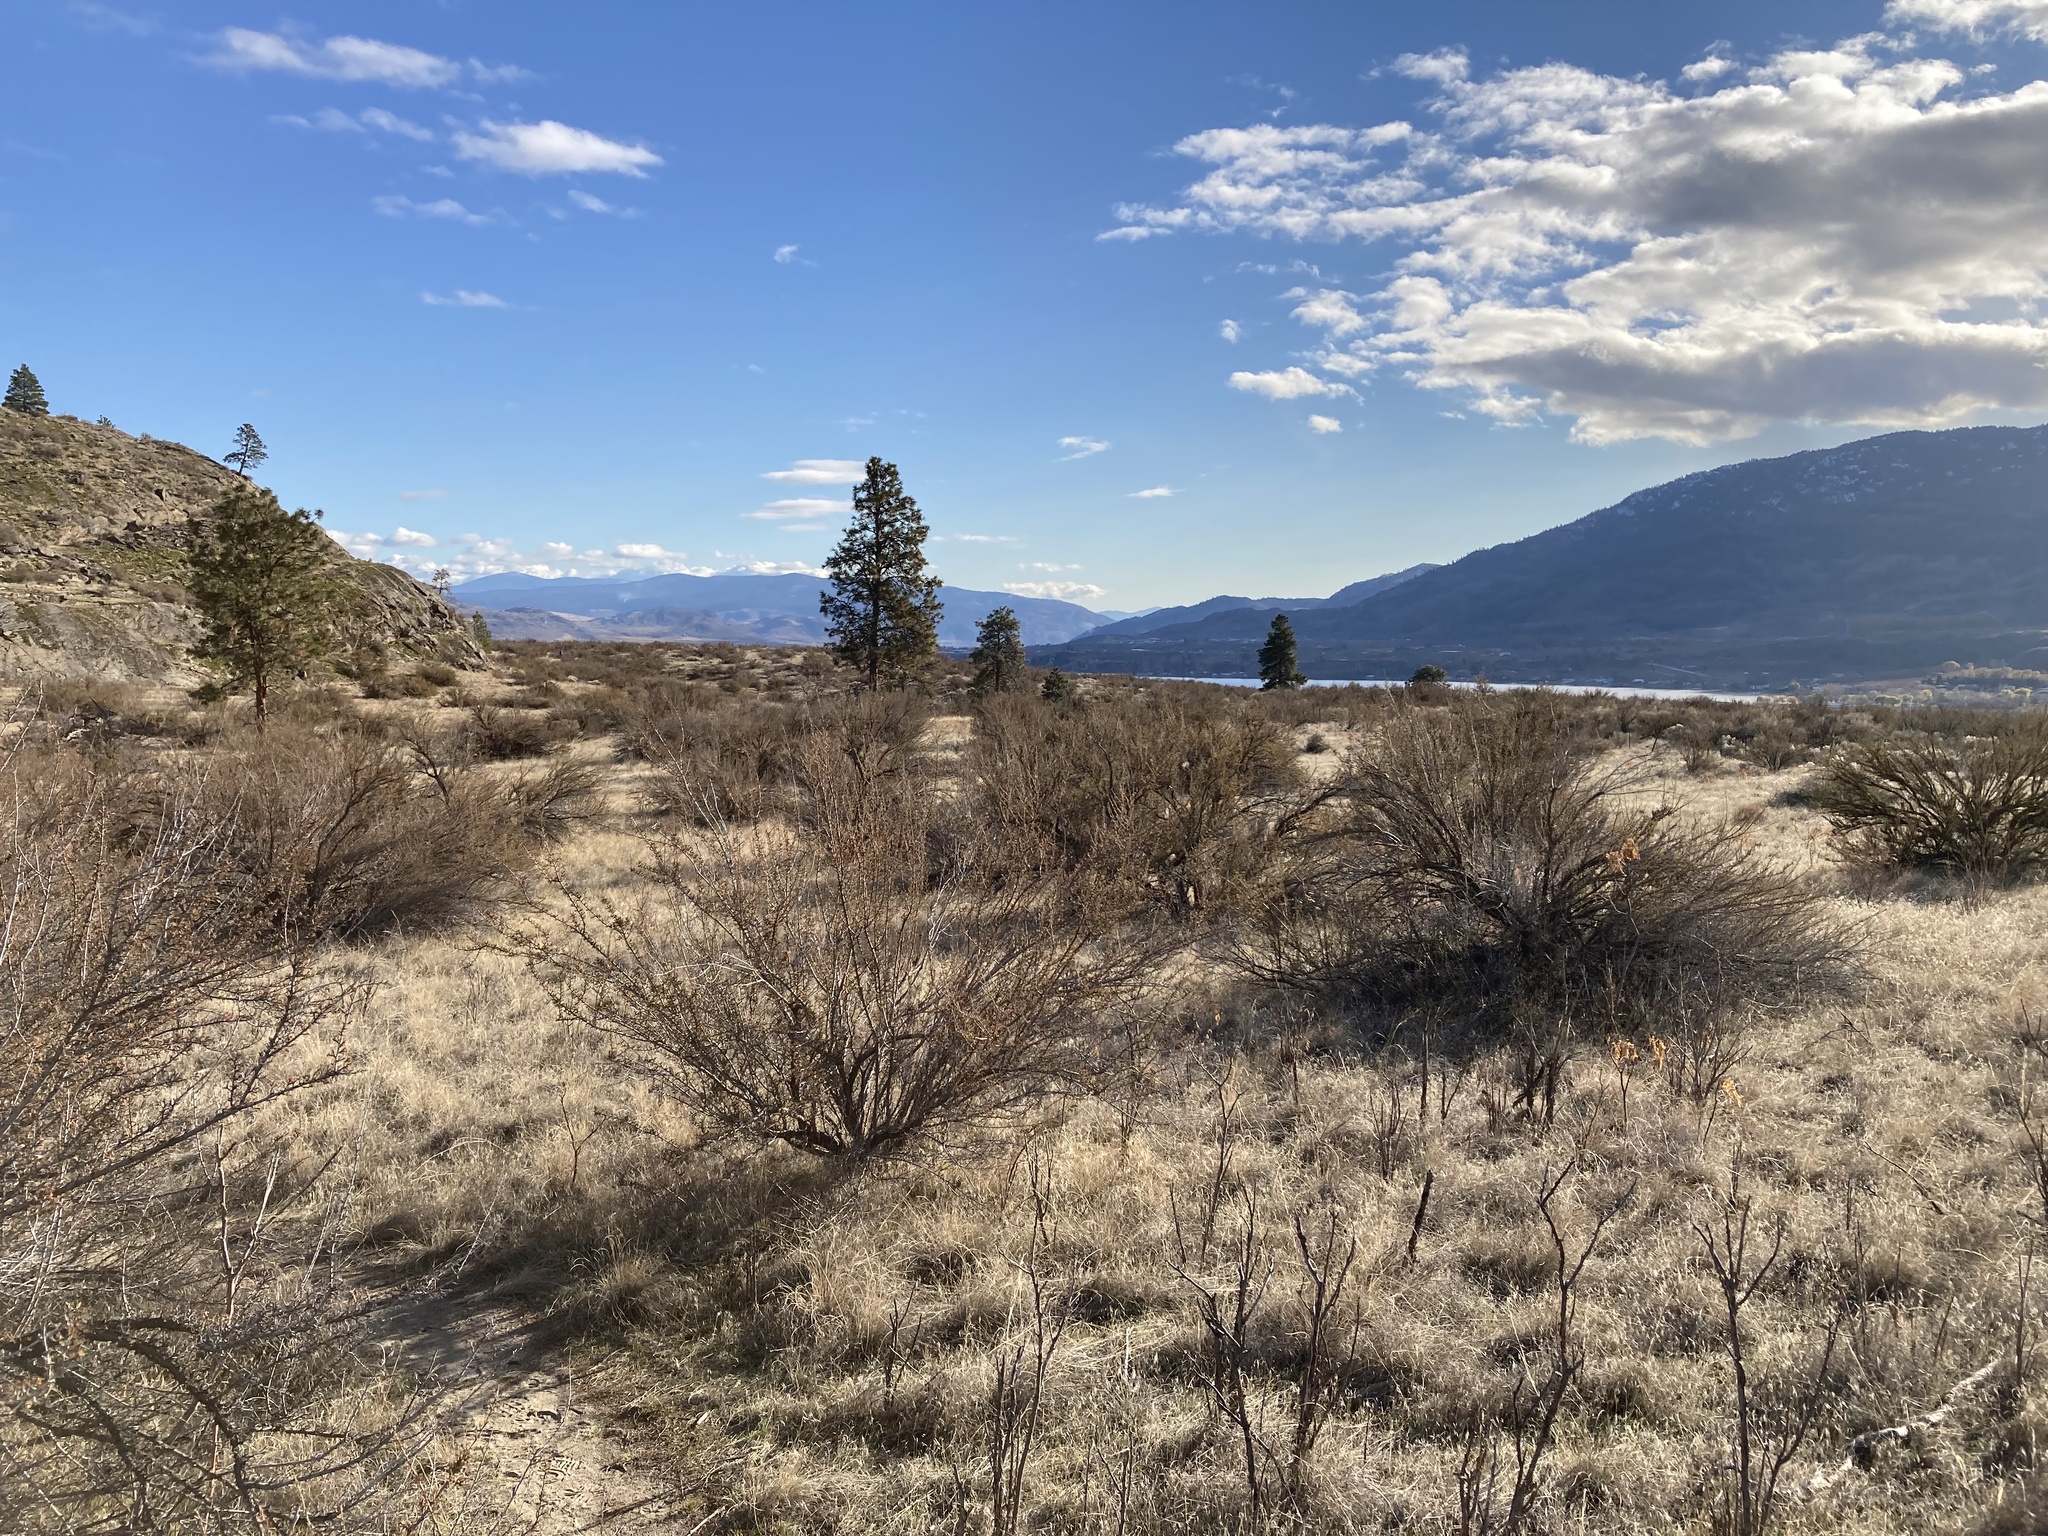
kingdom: Plantae
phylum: Tracheophyta
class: Magnoliopsida
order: Rosales
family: Rosaceae
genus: Purshia
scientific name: Purshia tridentata
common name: Antelope bitterbrush
